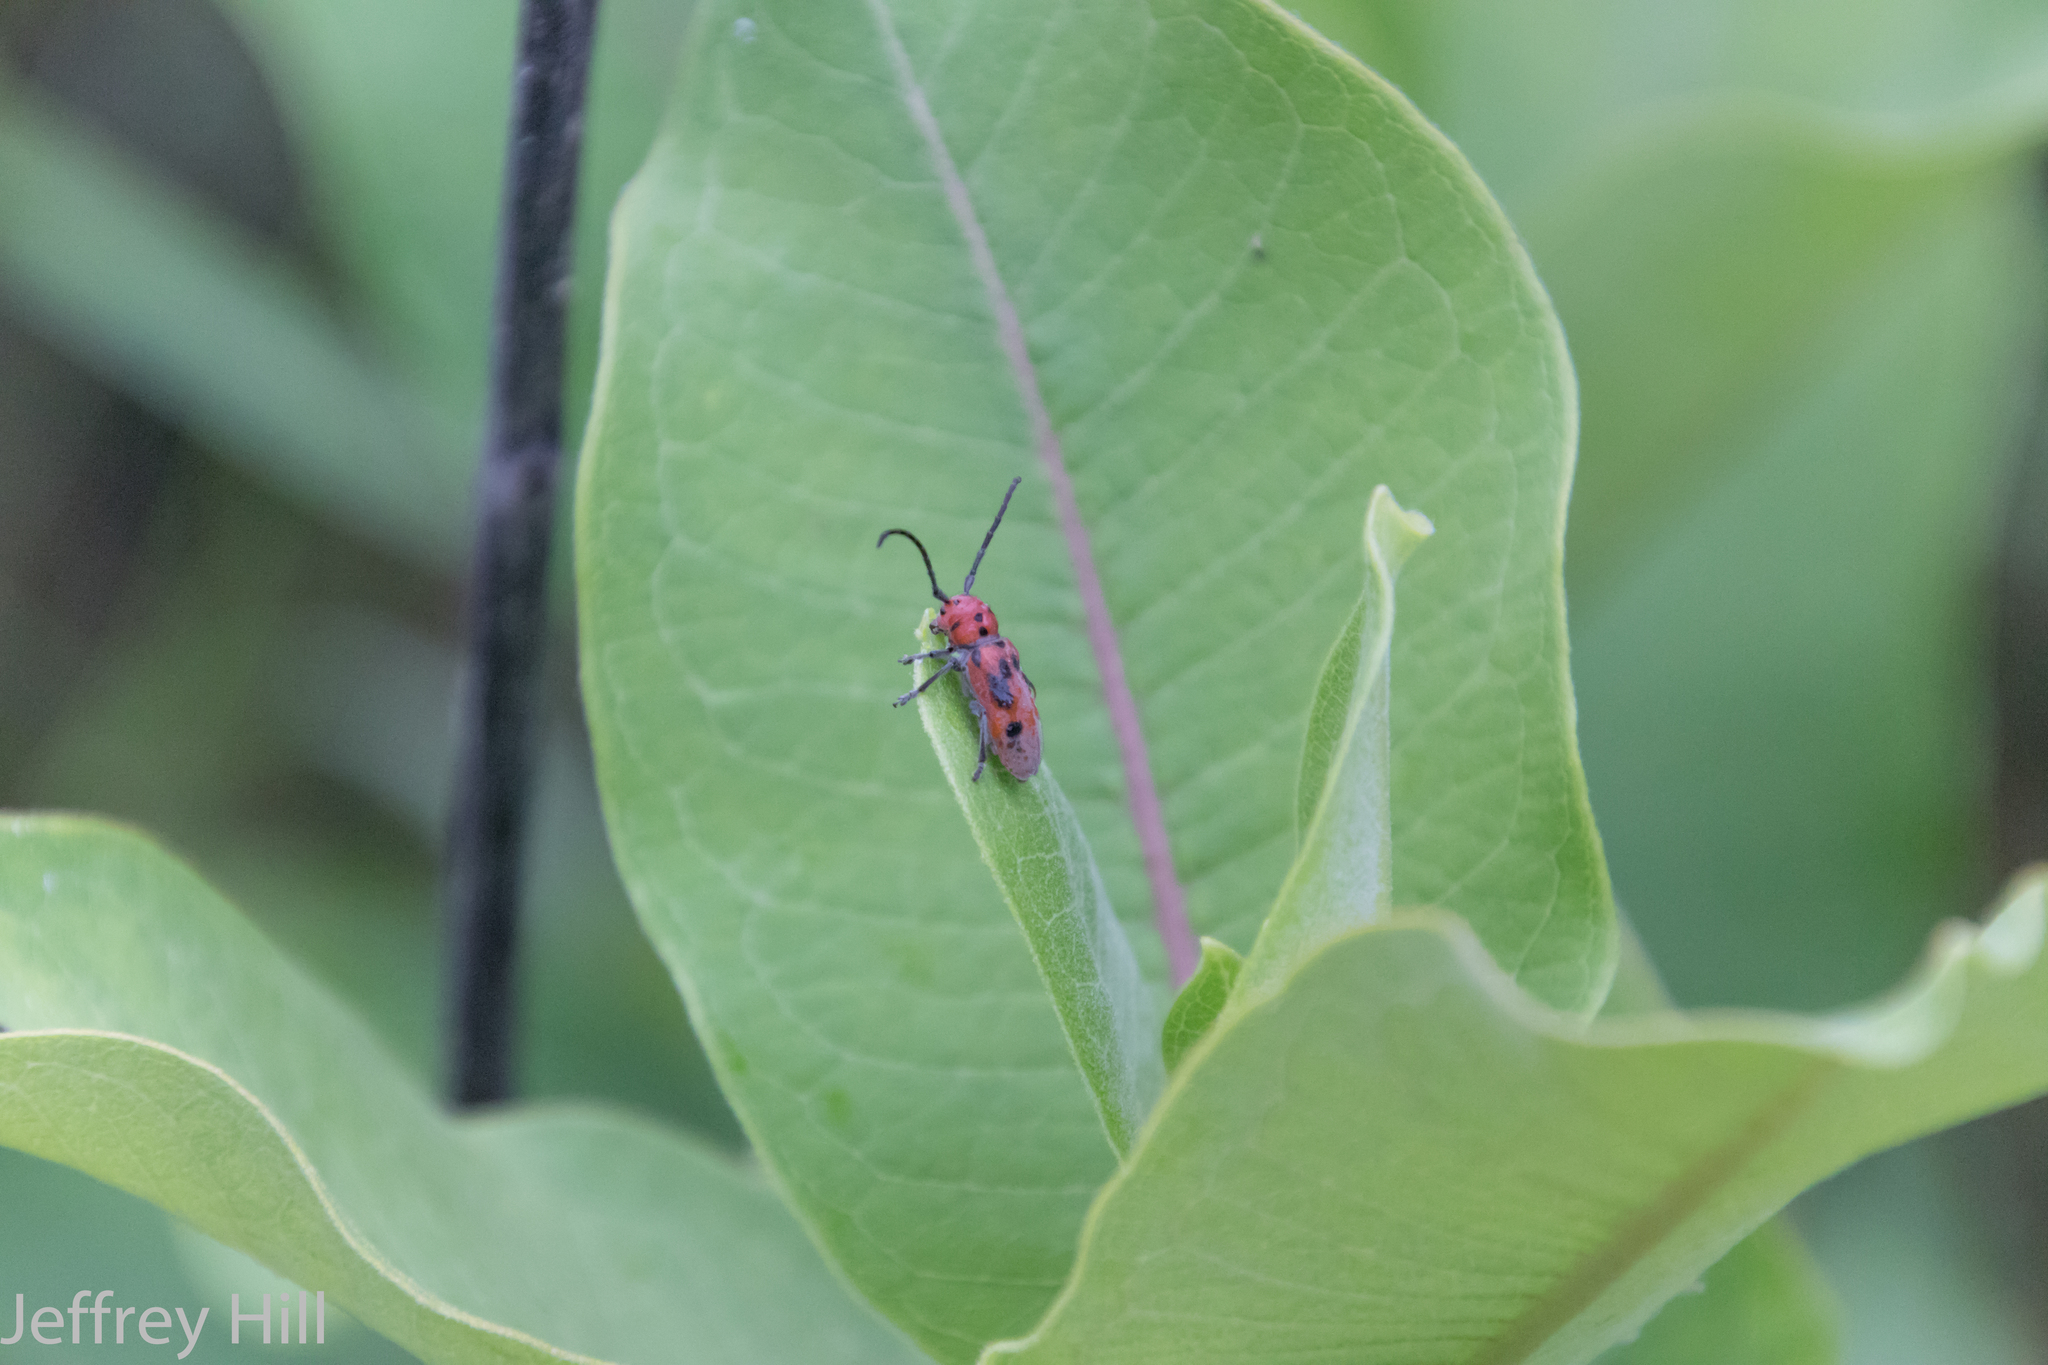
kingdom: Animalia
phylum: Arthropoda
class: Insecta
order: Coleoptera
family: Cerambycidae
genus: Tetraopes
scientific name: Tetraopes tetrophthalmus
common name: Red milkweed beetle
